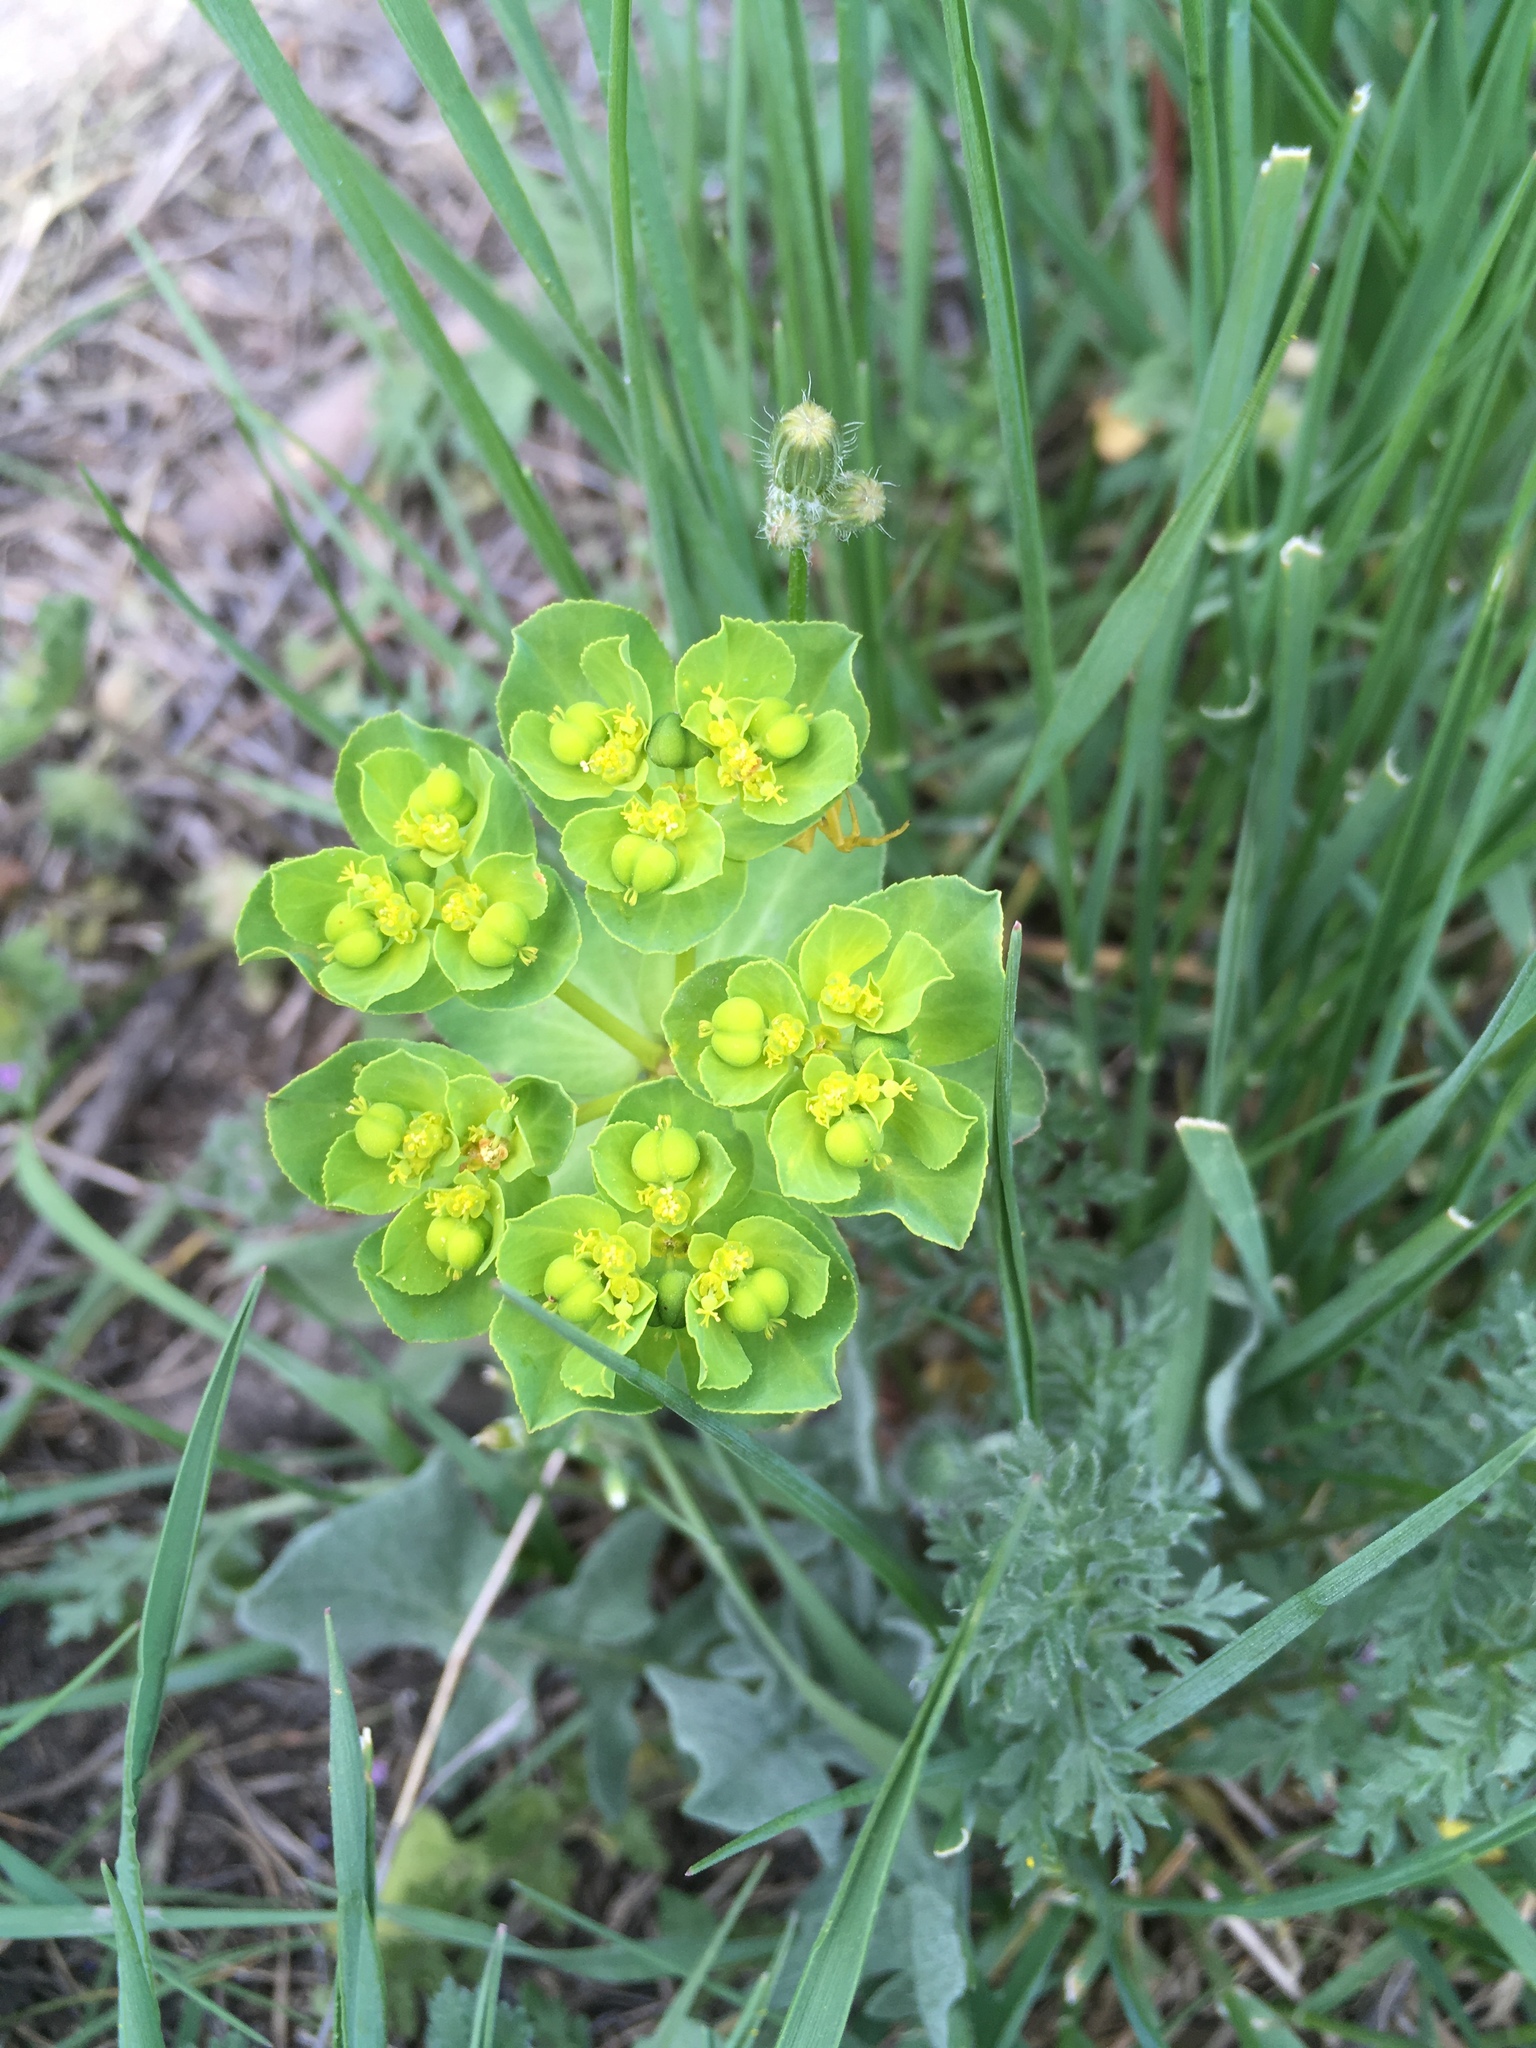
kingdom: Plantae
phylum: Tracheophyta
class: Magnoliopsida
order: Malpighiales
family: Euphorbiaceae
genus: Euphorbia
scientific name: Euphorbia helioscopia
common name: Sun spurge
